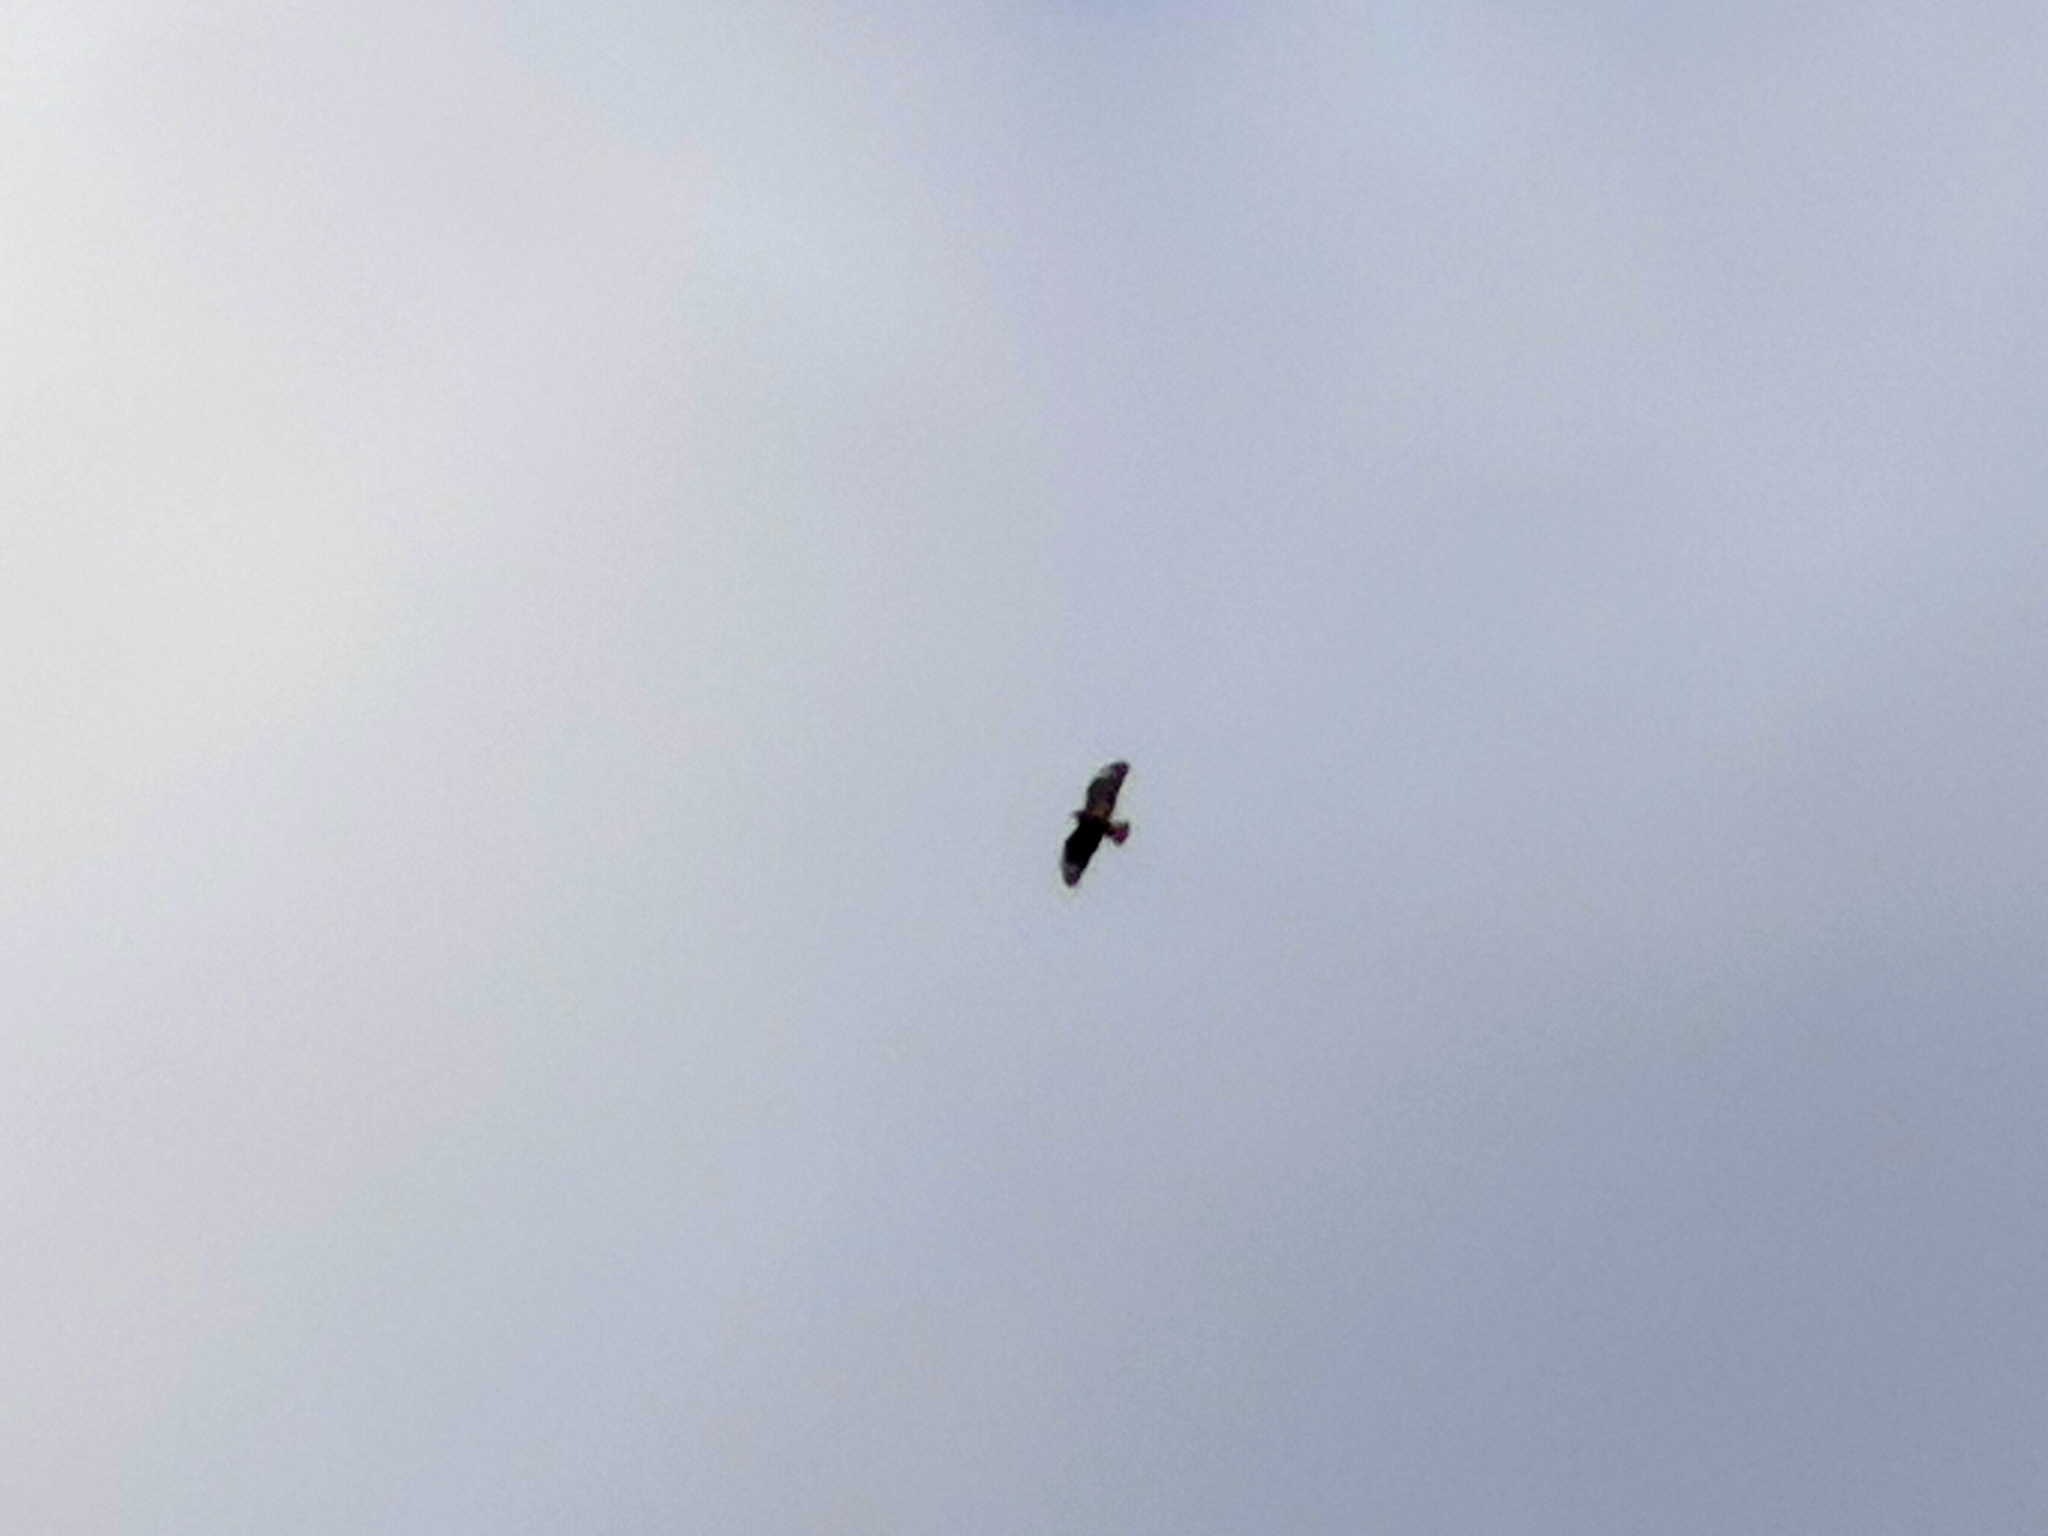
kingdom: Animalia
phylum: Chordata
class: Aves
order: Accipitriformes
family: Accipitridae
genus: Buteo
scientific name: Buteo buteo
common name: Common buzzard
